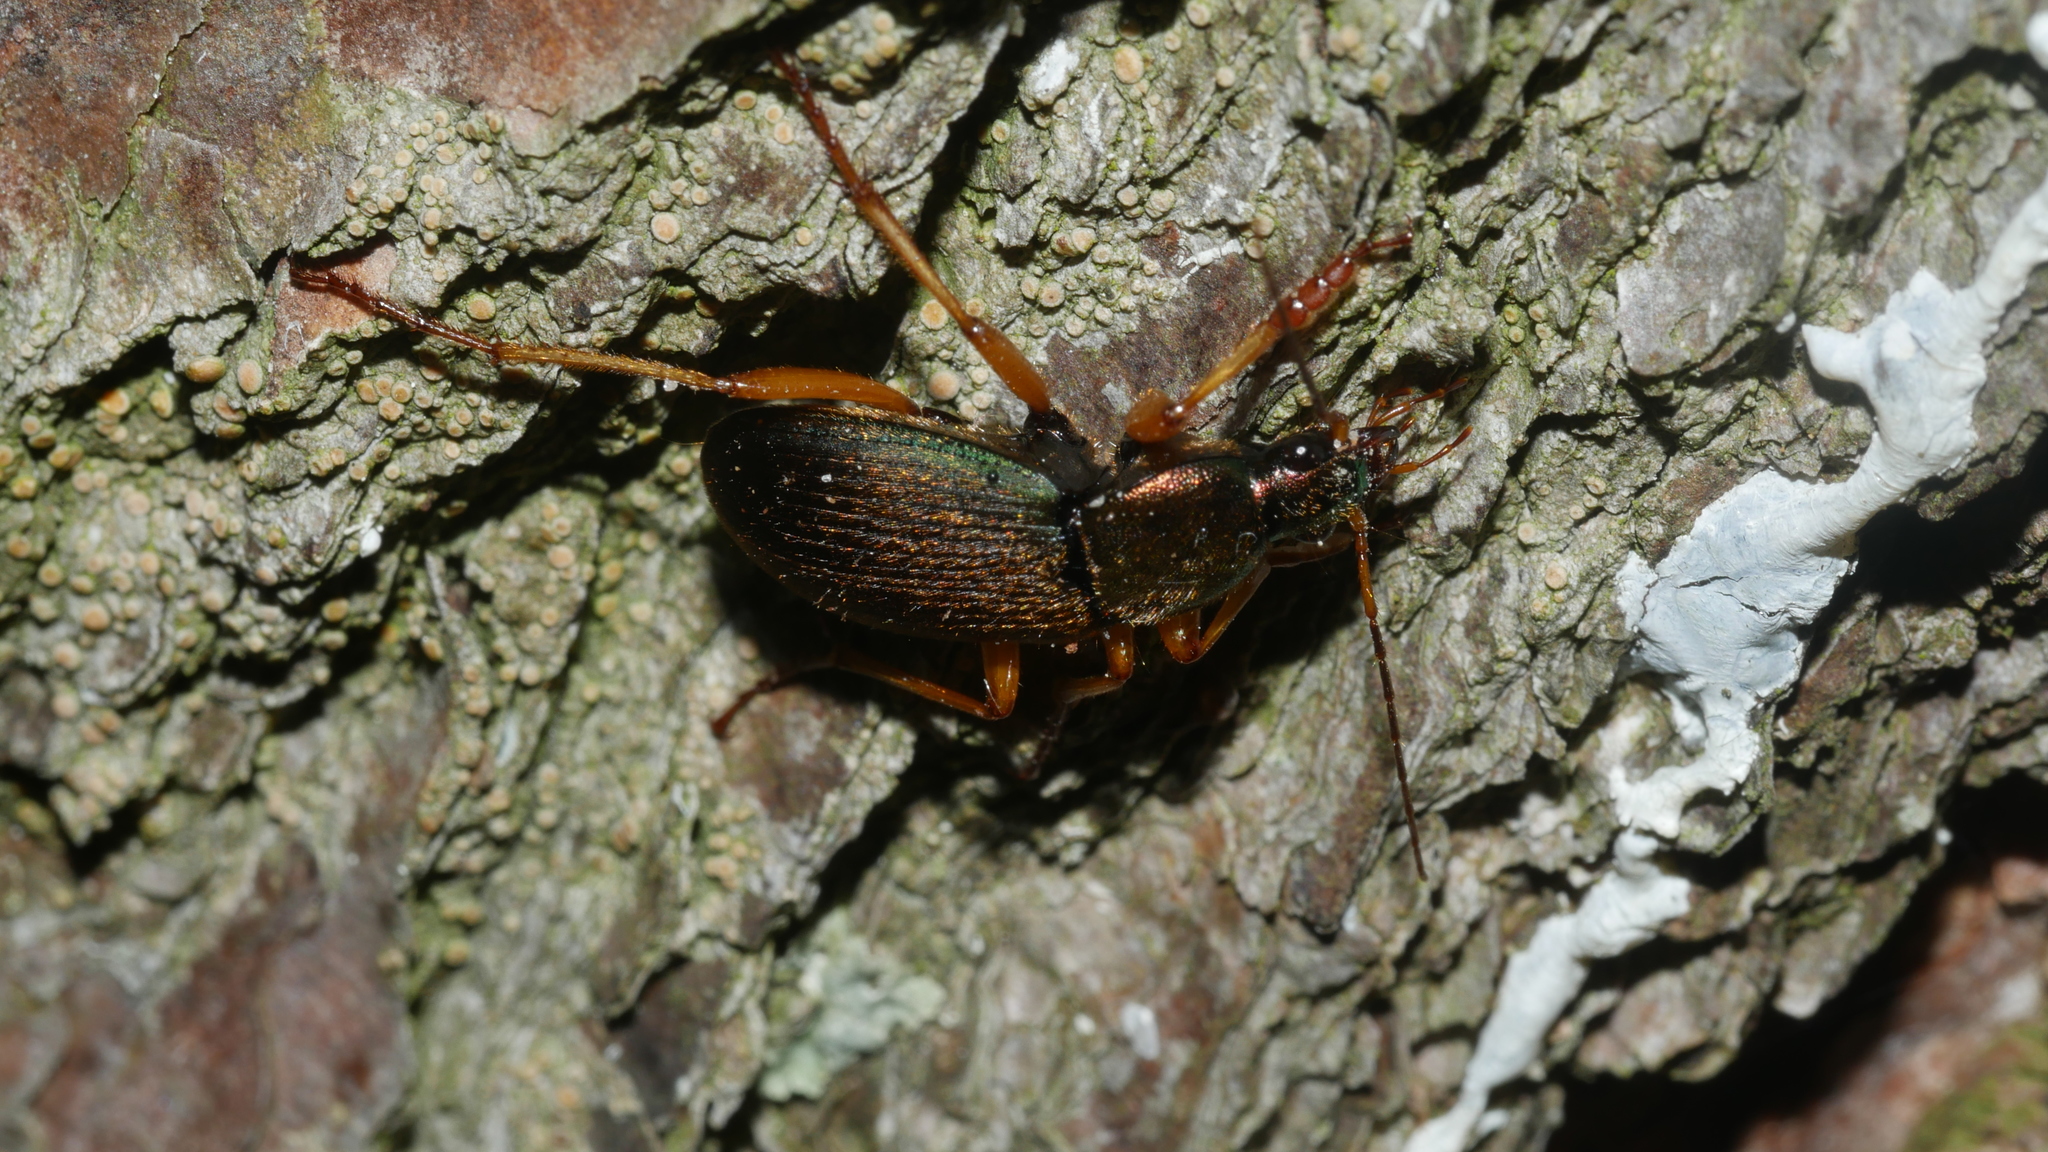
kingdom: Animalia
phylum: Arthropoda
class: Insecta
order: Coleoptera
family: Carabidae
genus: Chlaenius
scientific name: Chlaenius aestivus
